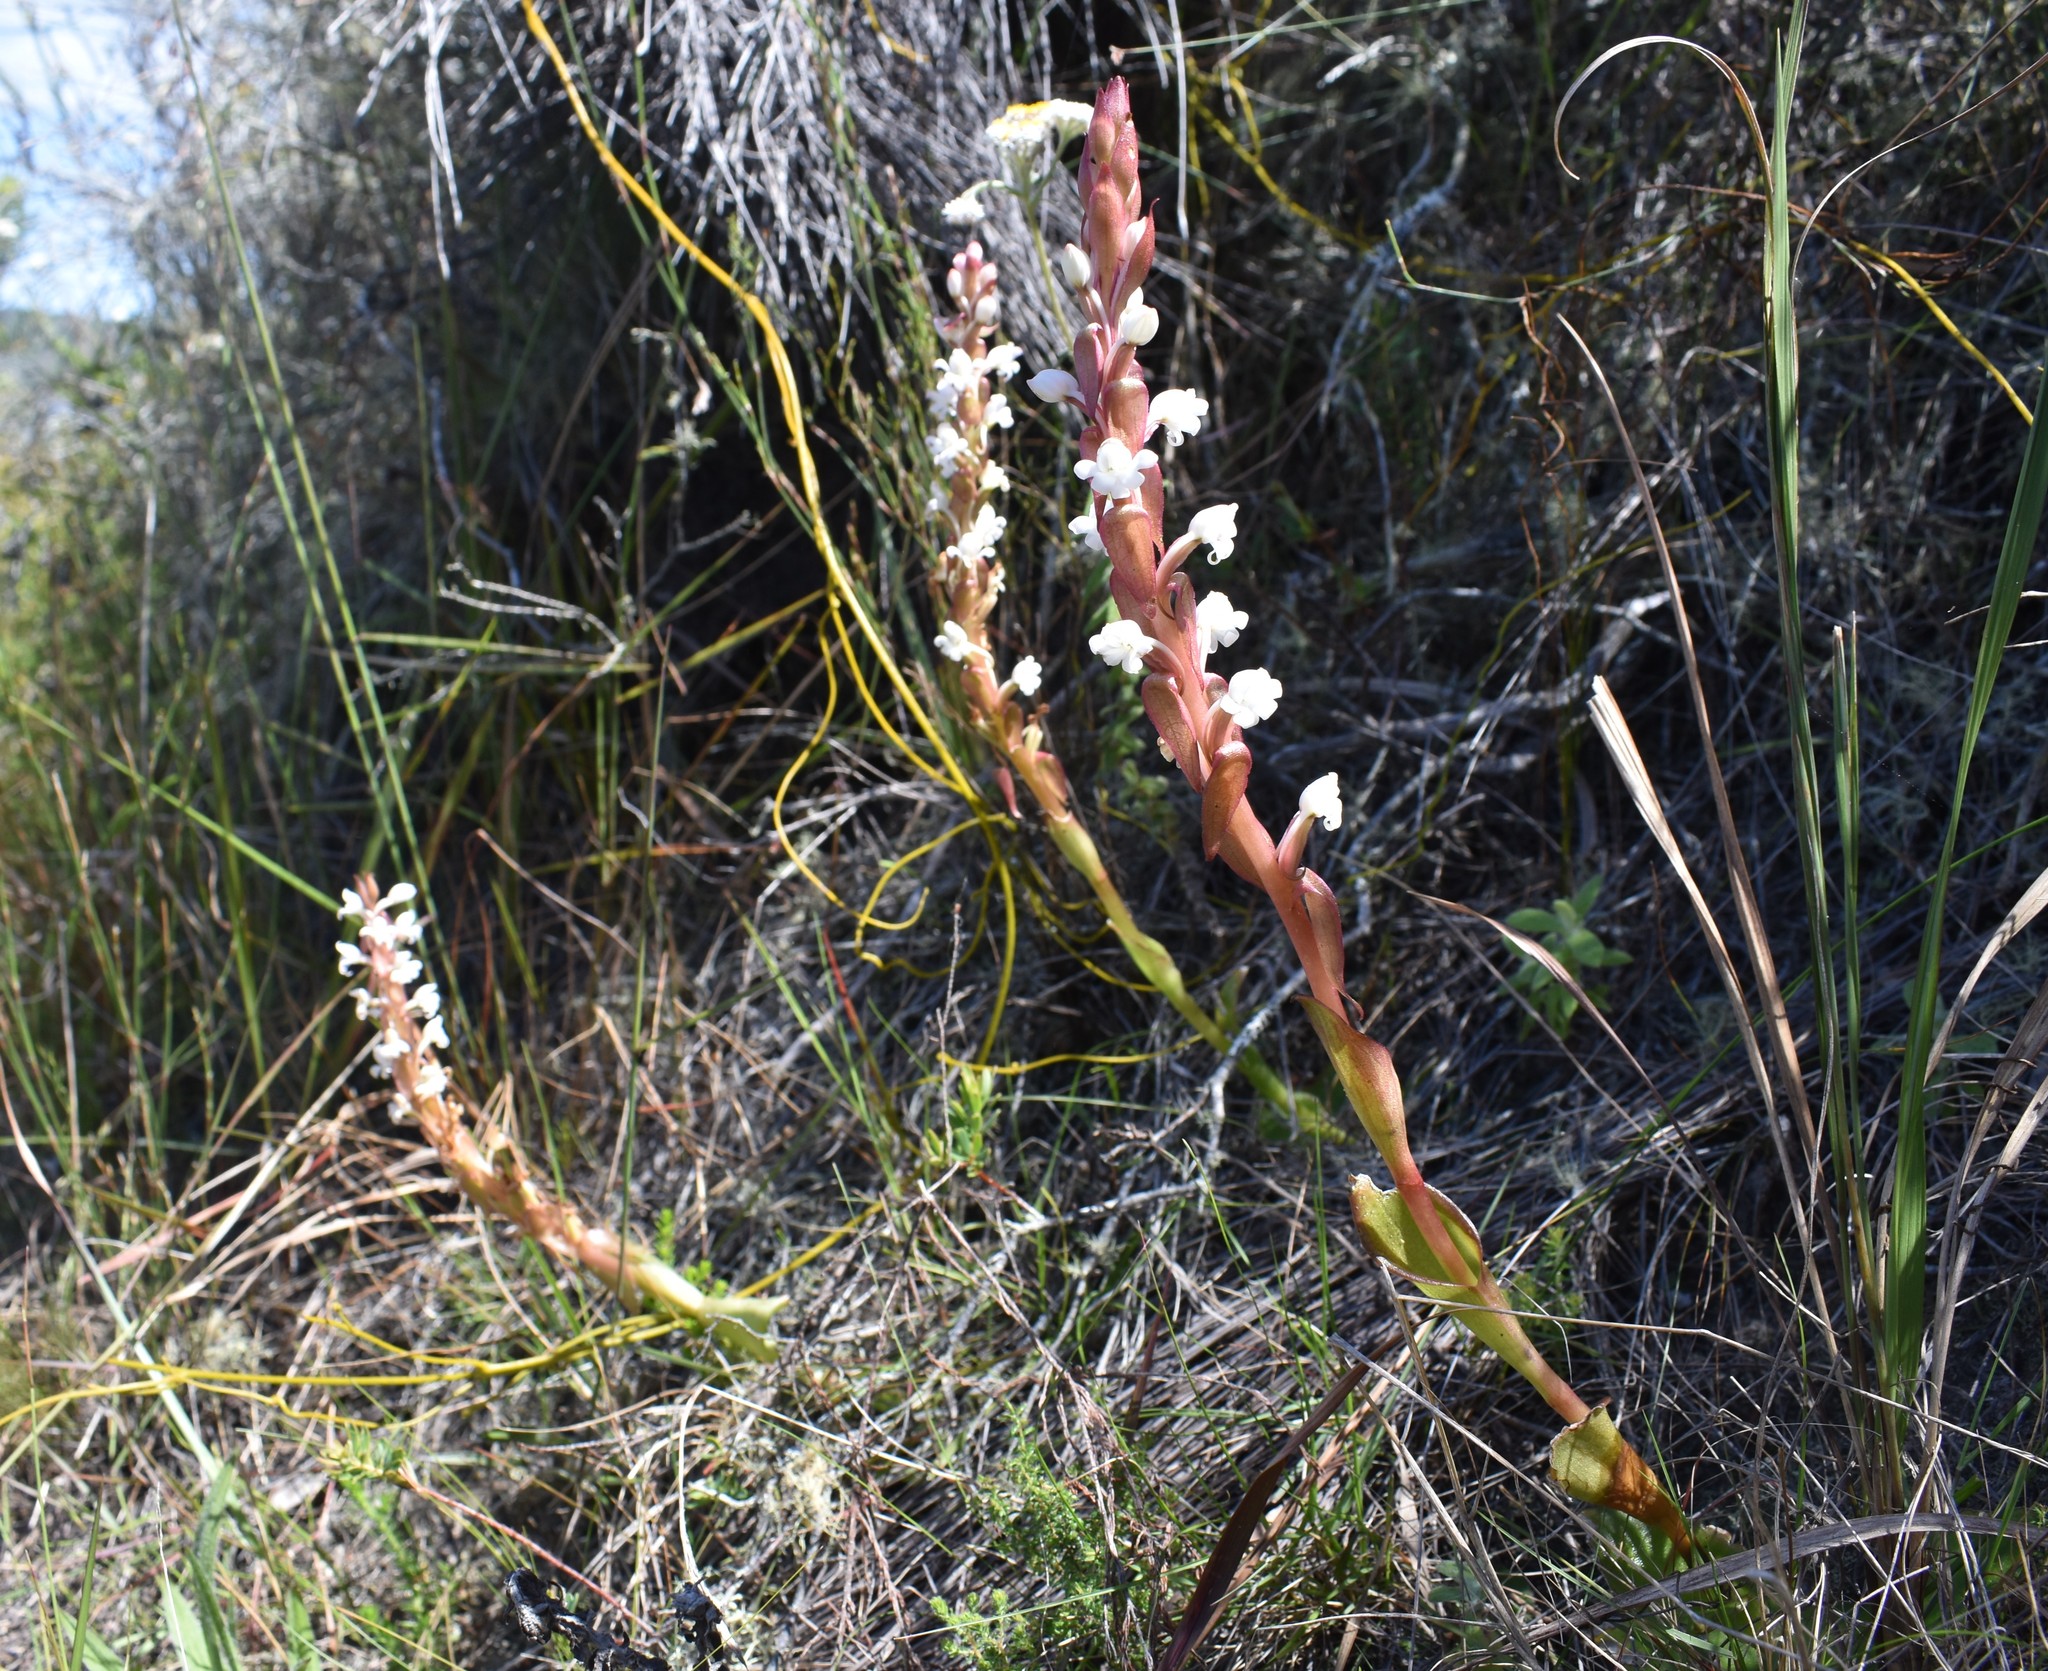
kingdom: Plantae
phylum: Tracheophyta
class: Liliopsida
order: Asparagales
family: Orchidaceae
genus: Satyrium
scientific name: Satyrium acuminatum
